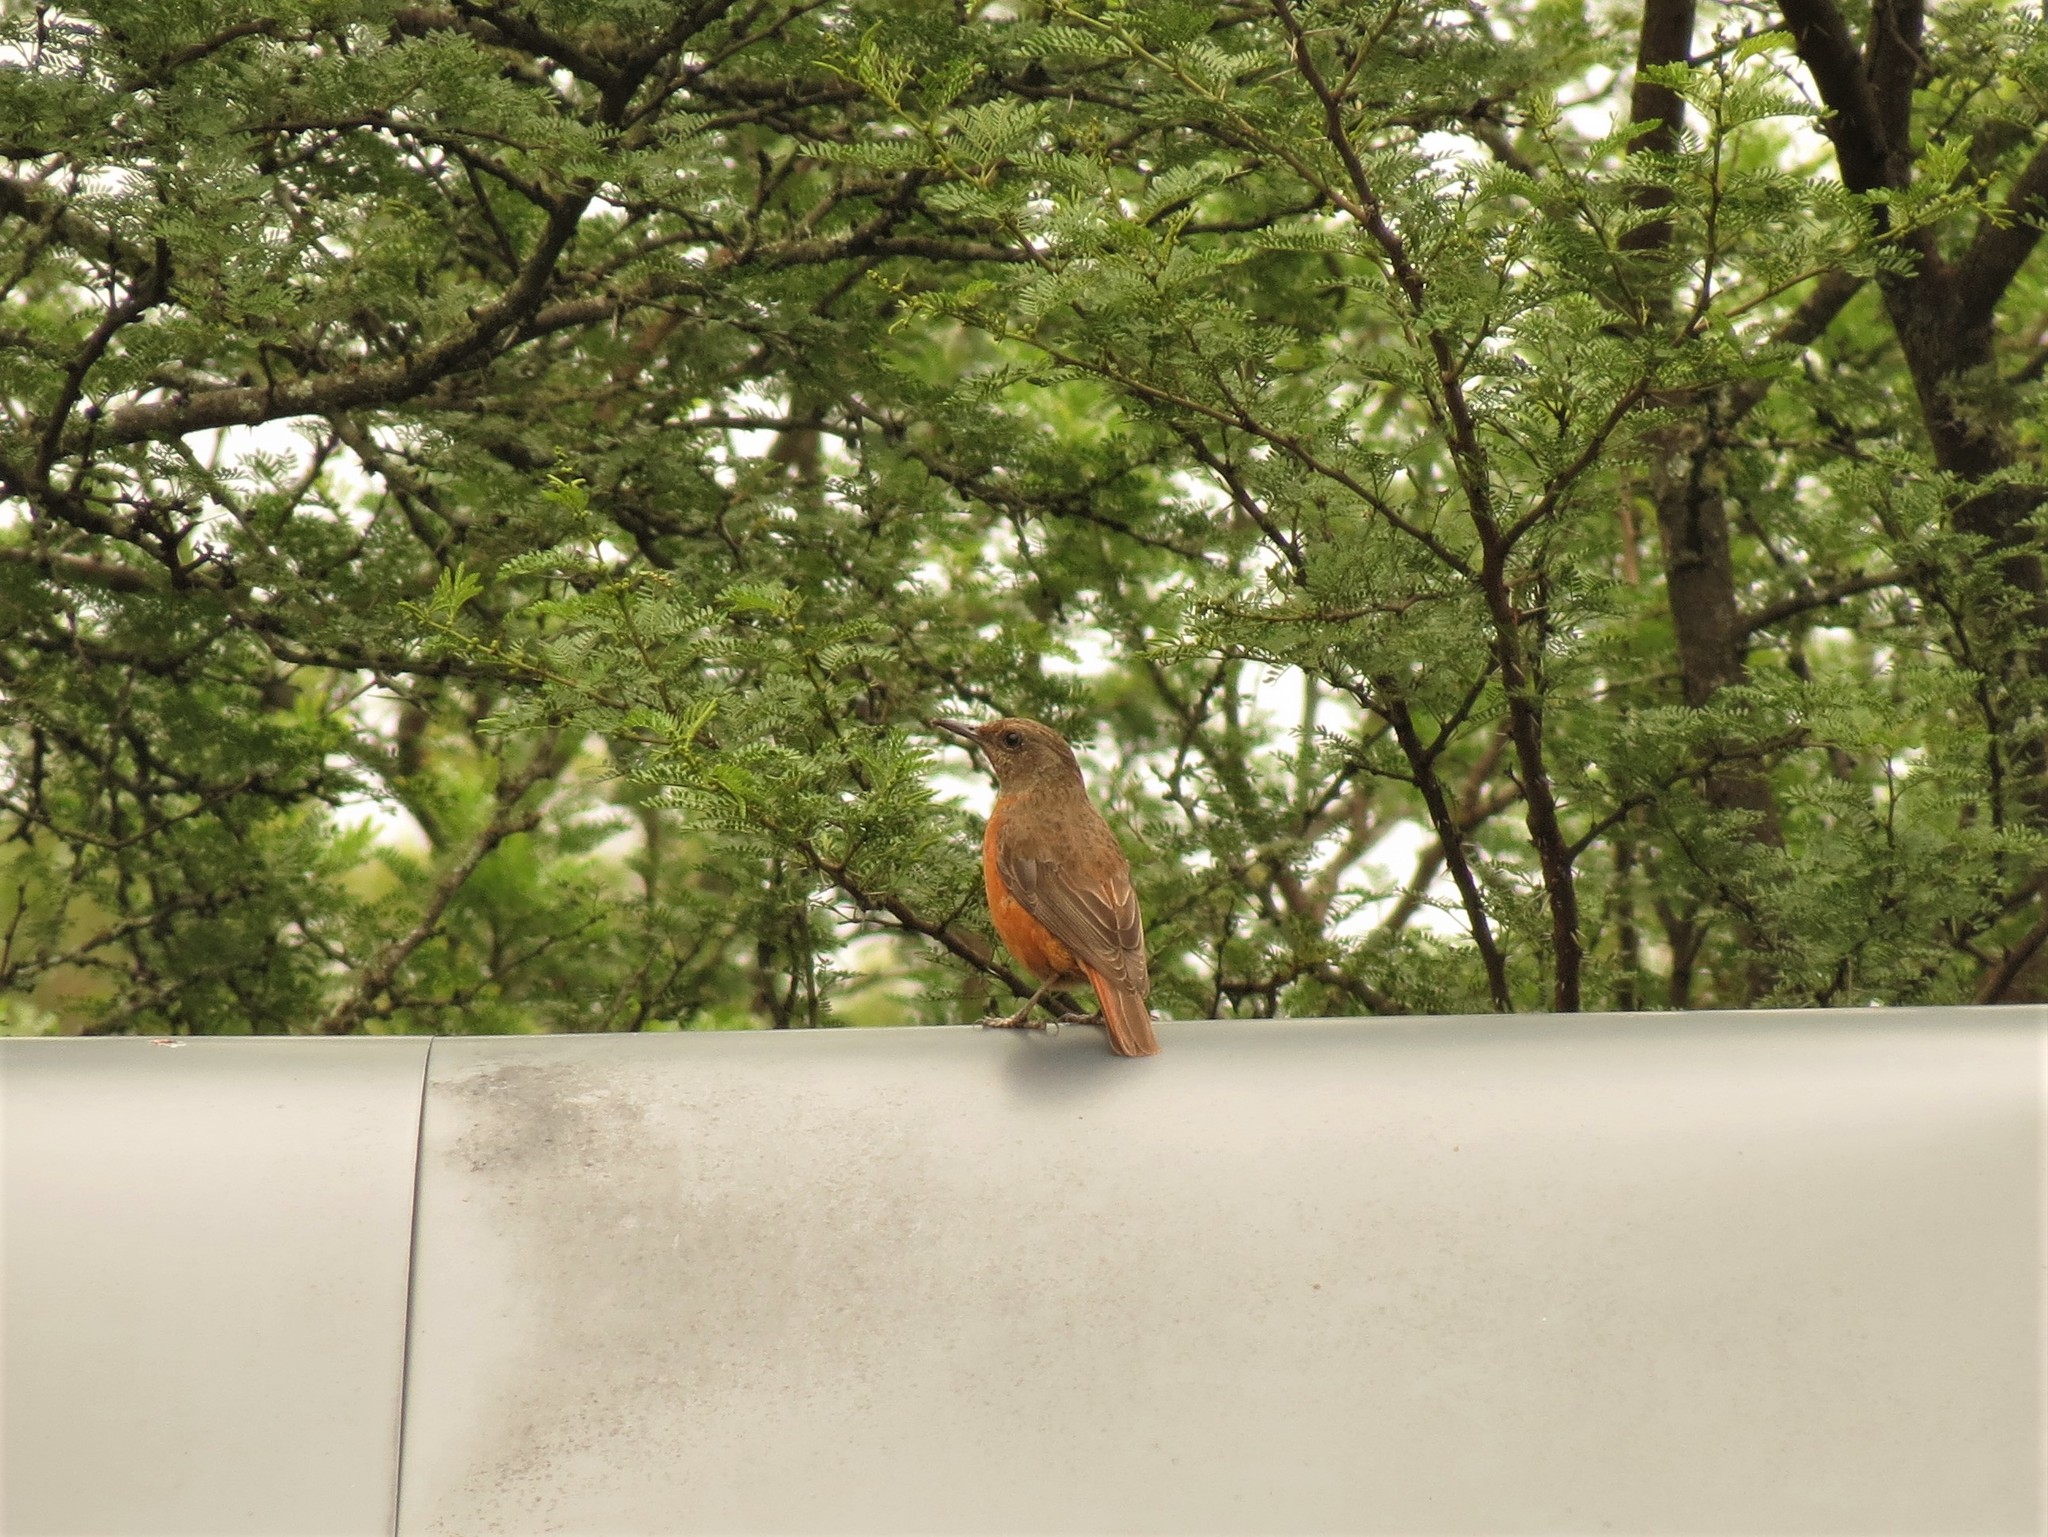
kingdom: Animalia
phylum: Chordata
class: Aves
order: Passeriformes
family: Muscicapidae
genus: Monticola
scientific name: Monticola rupestris
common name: Cape rock thrush
